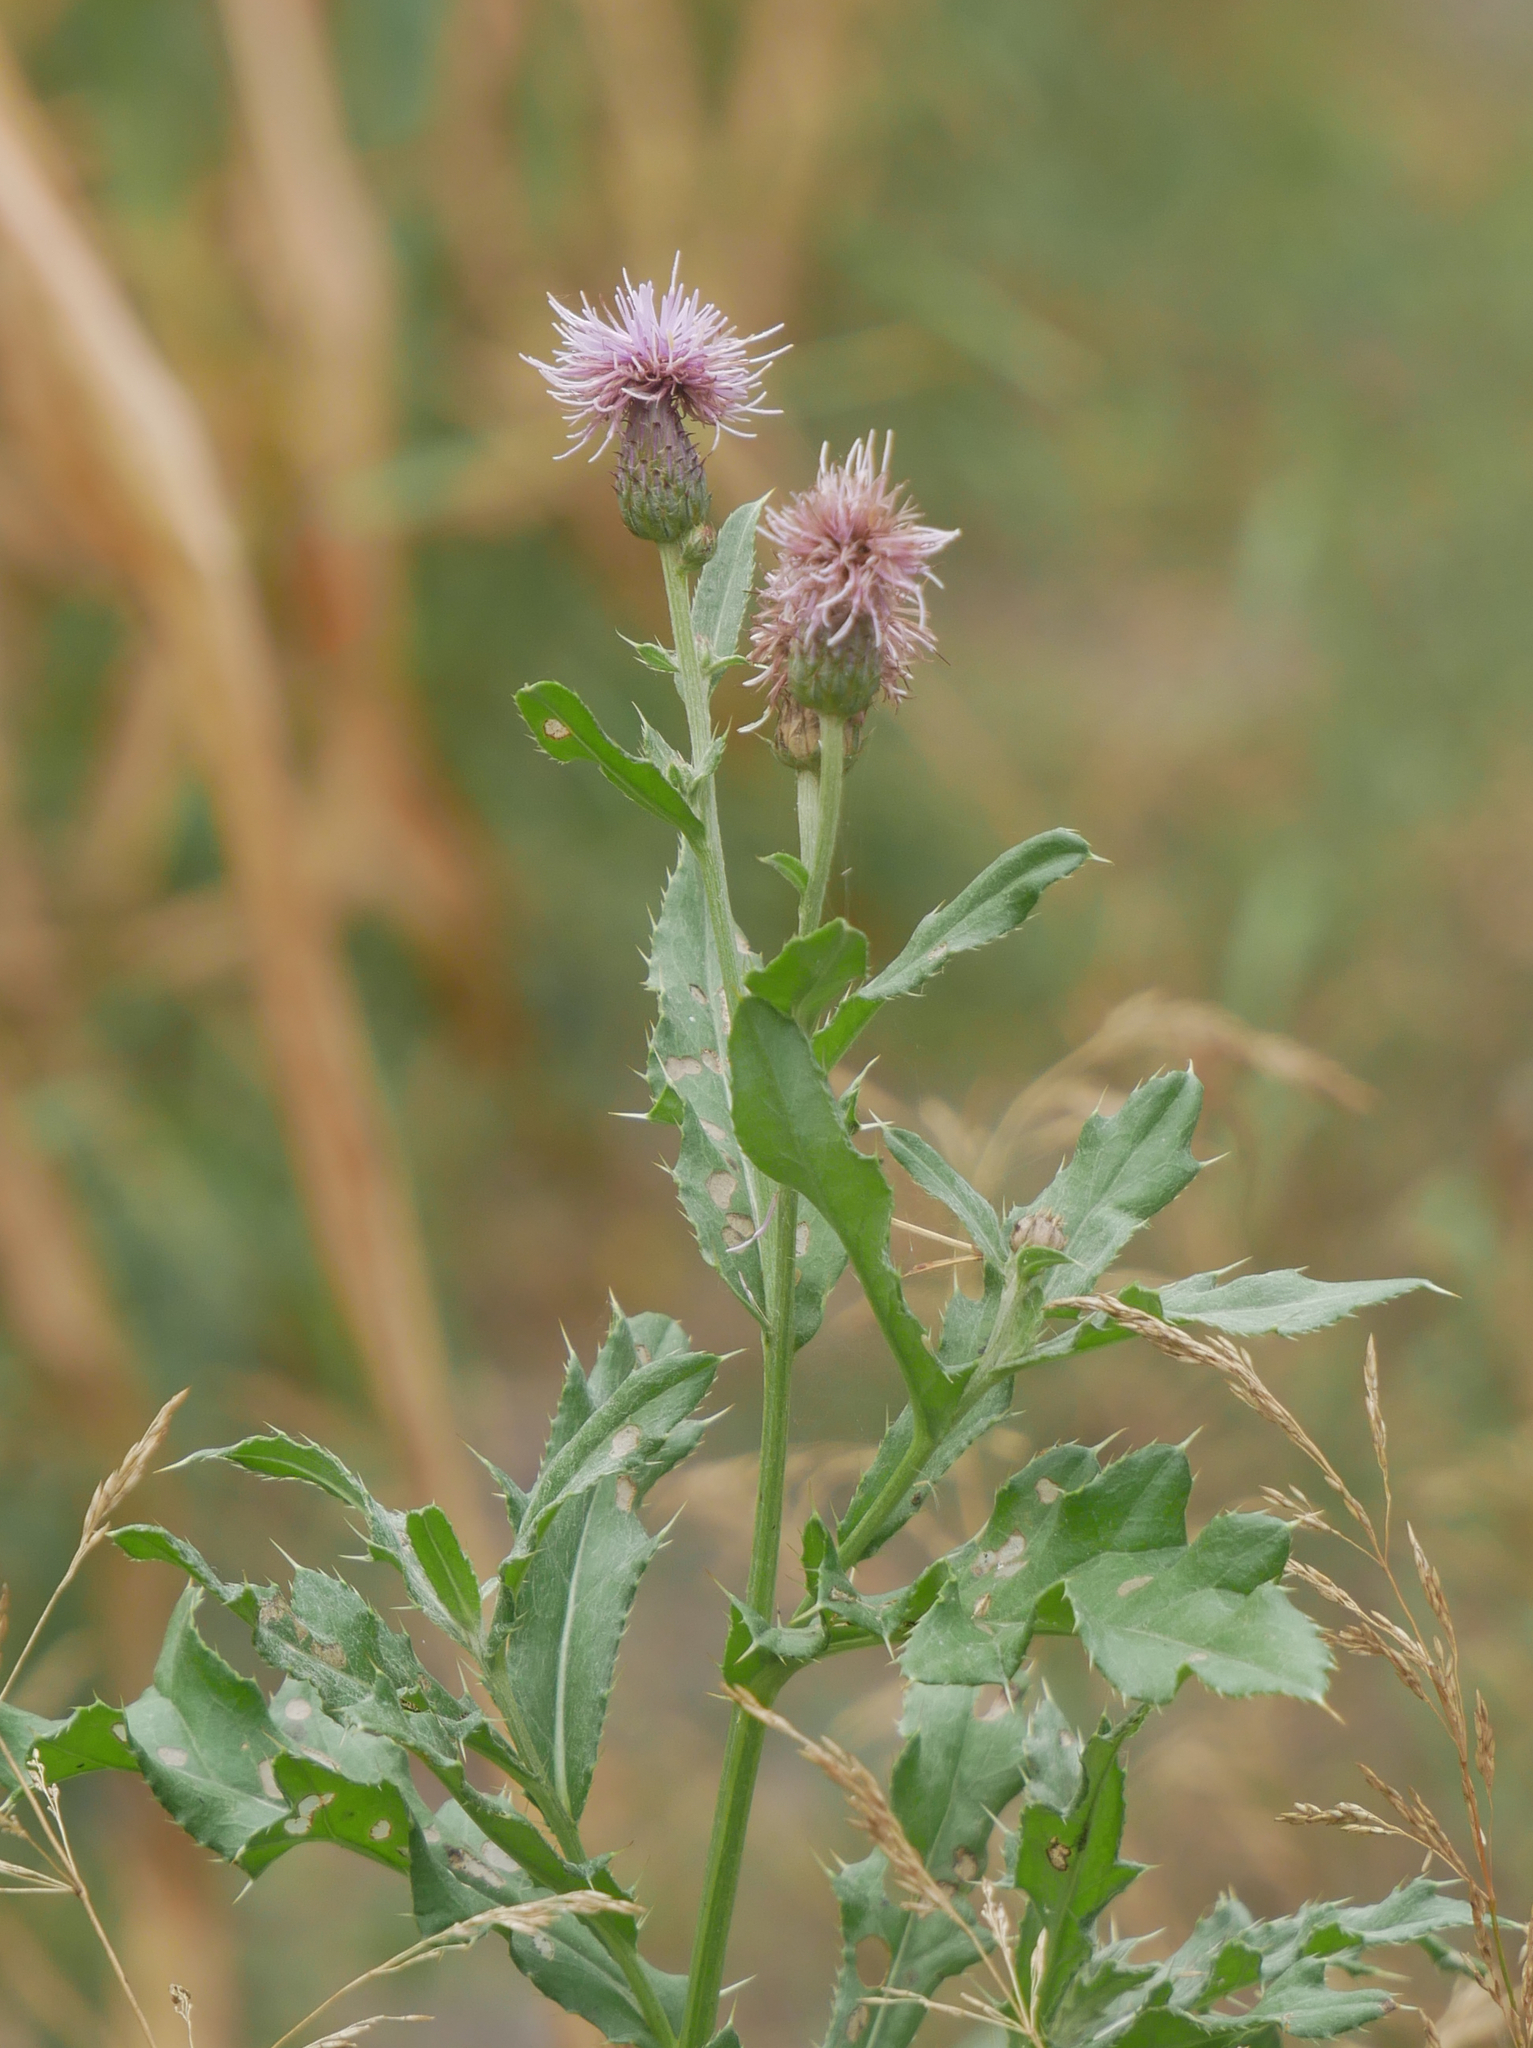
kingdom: Plantae
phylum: Tracheophyta
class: Magnoliopsida
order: Asterales
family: Asteraceae
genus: Cirsium
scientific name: Cirsium arvense
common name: Creeping thistle
